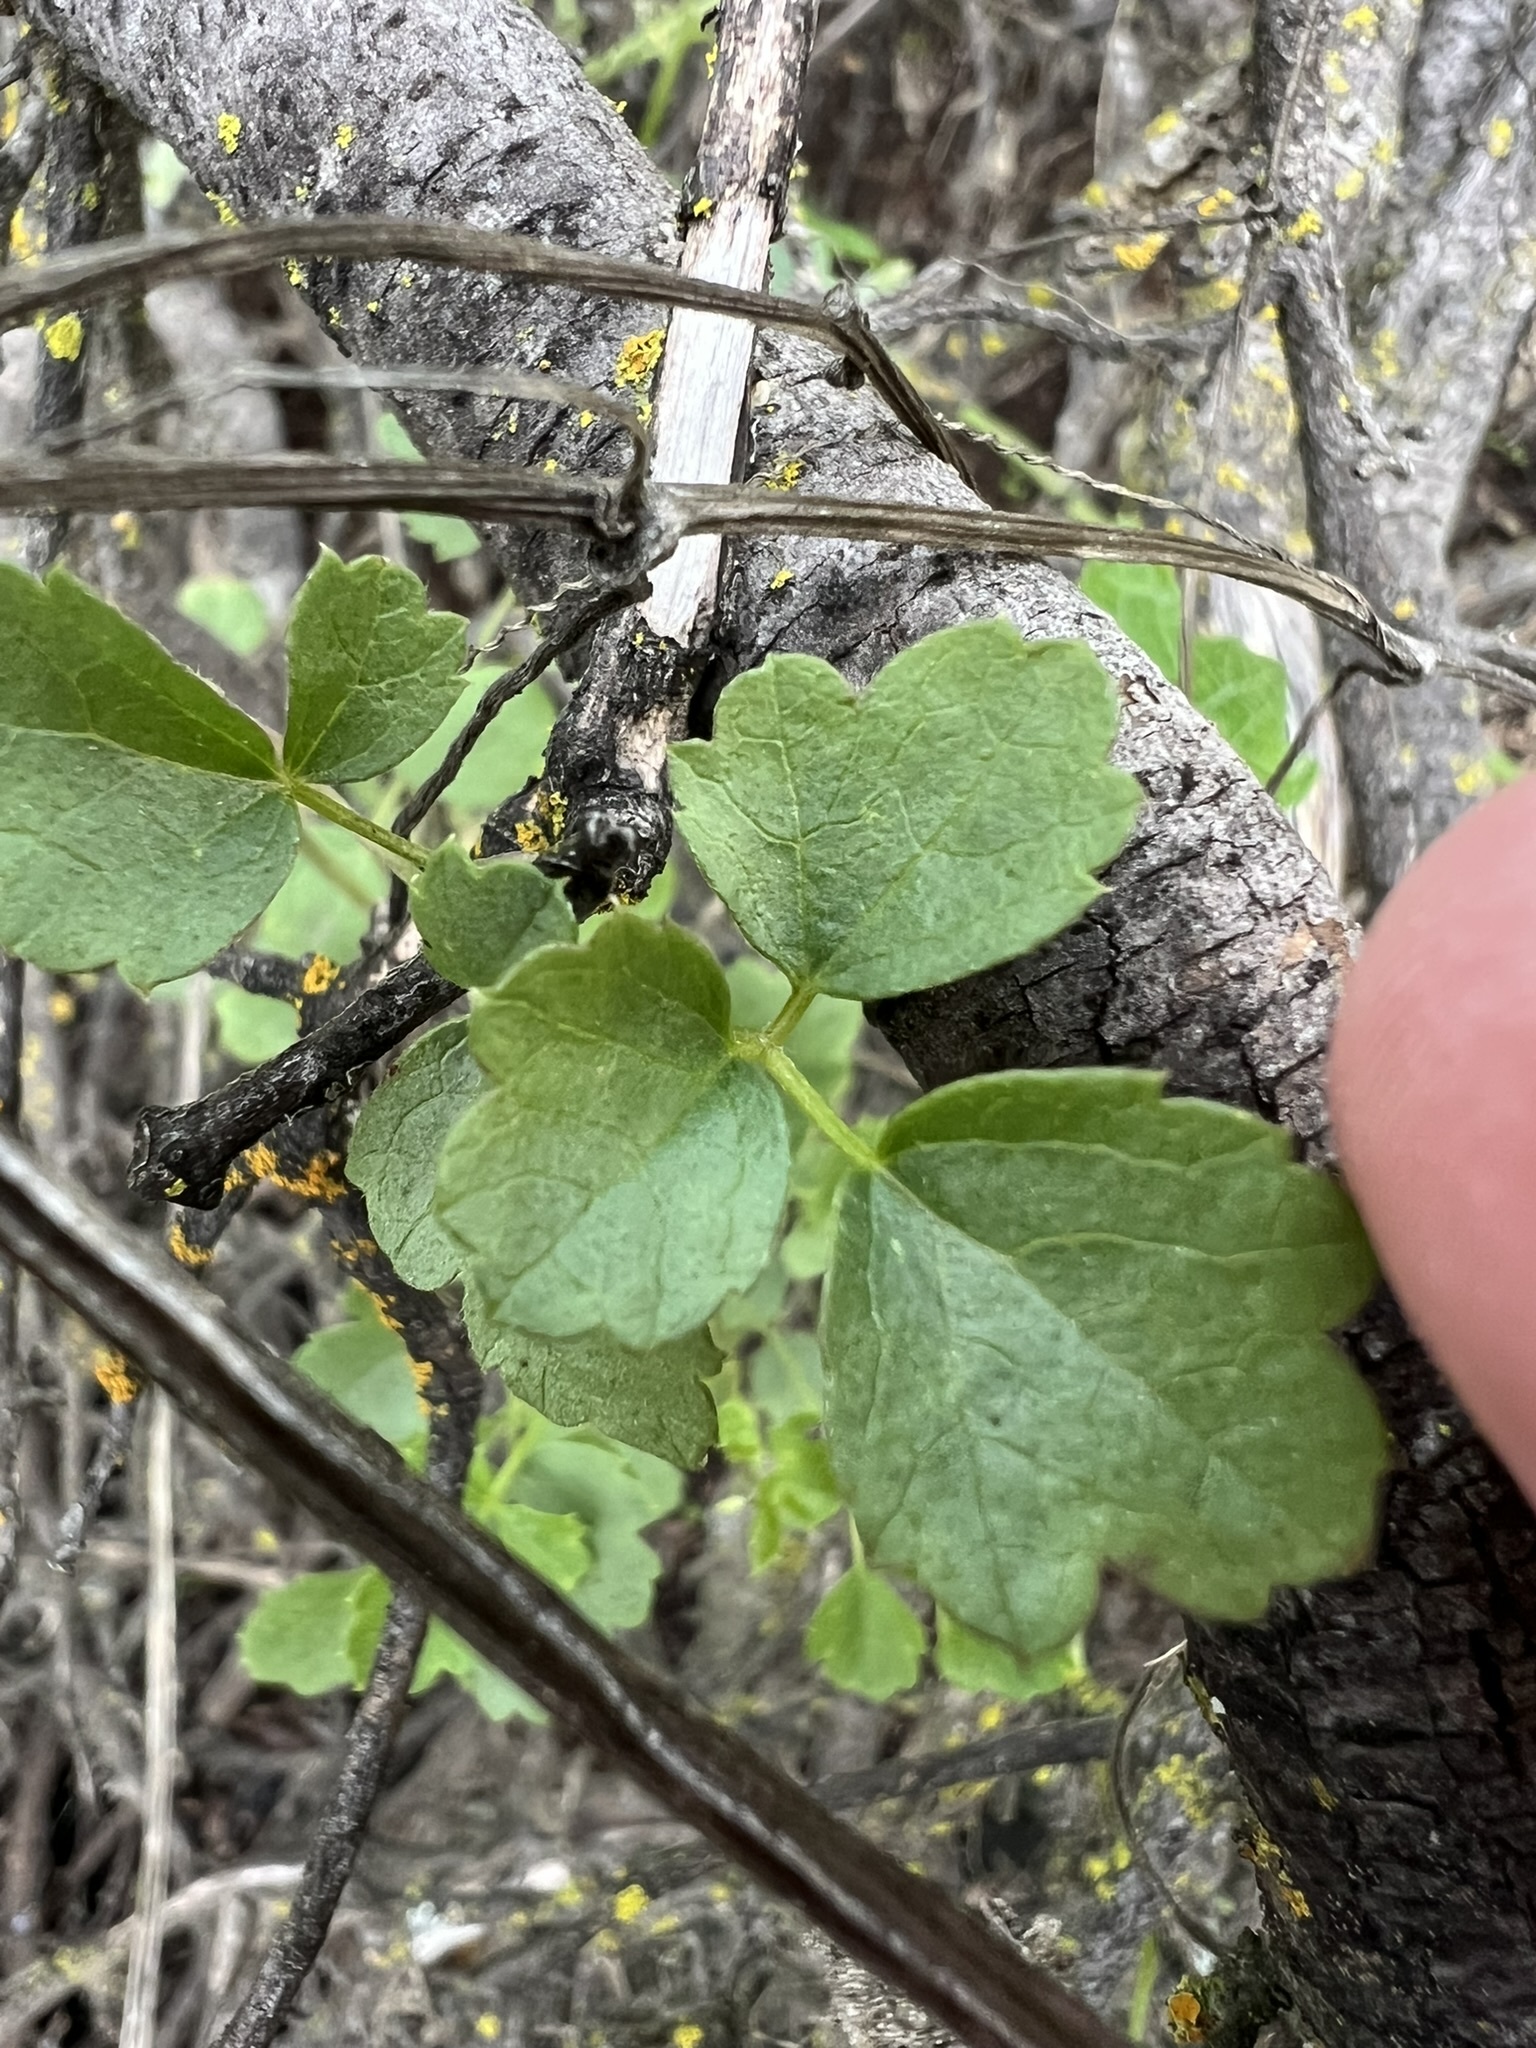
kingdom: Plantae
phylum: Tracheophyta
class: Magnoliopsida
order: Ranunculales
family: Ranunculaceae
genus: Clematis
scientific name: Clematis pauciflora
